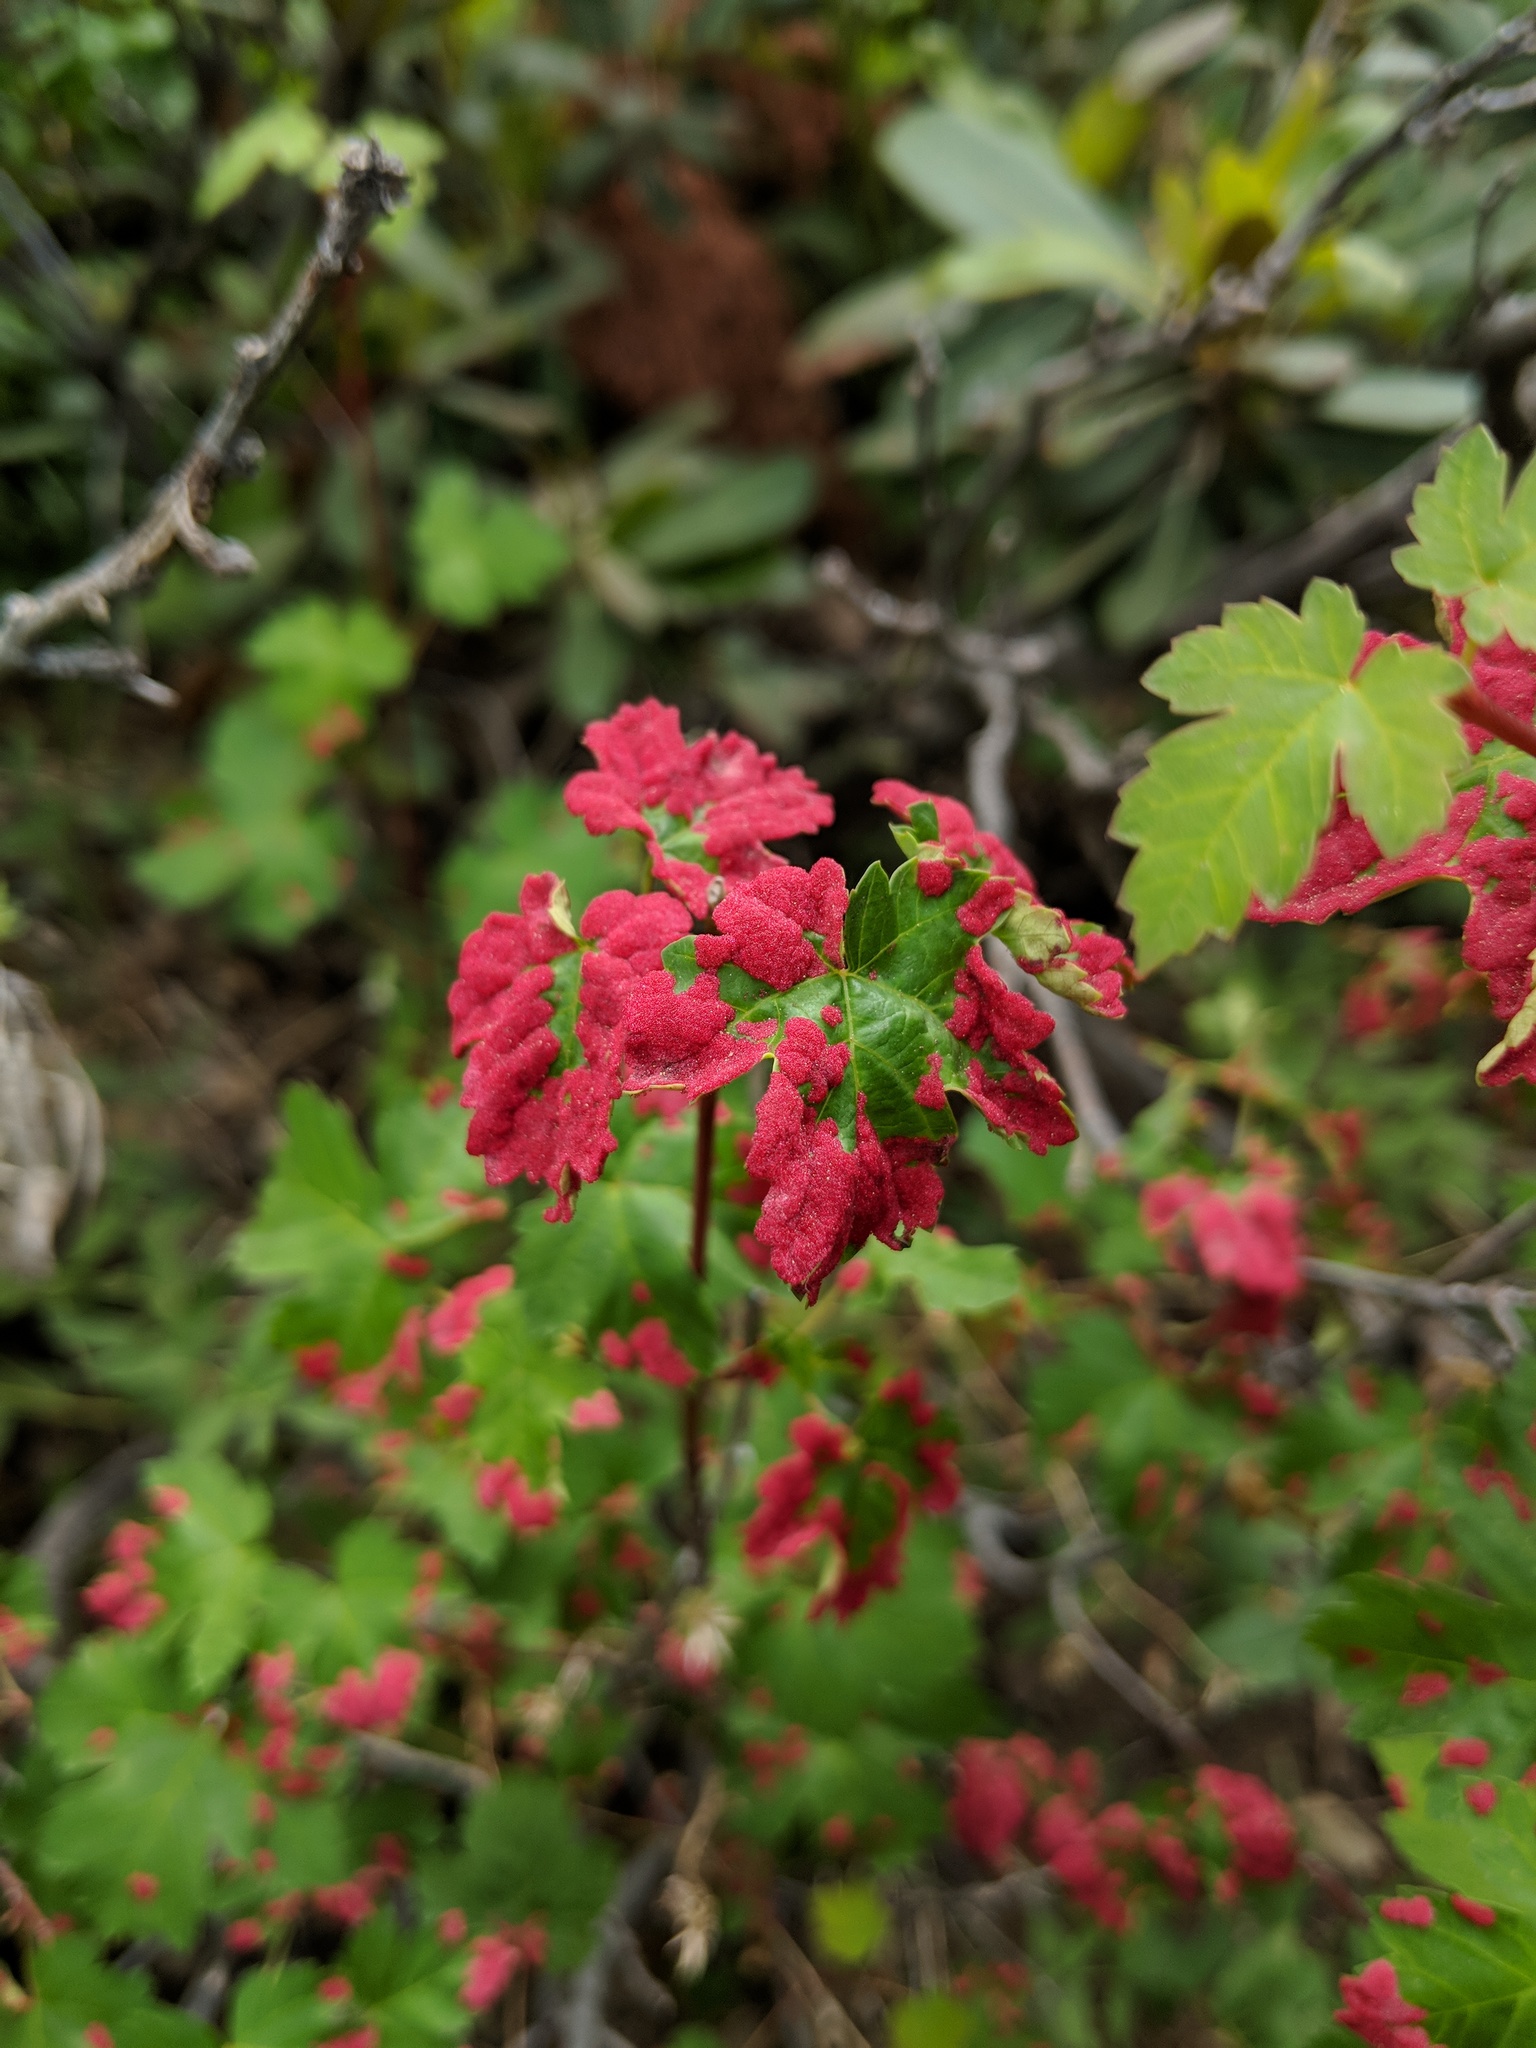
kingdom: Animalia
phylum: Arthropoda
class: Arachnida
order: Trombidiformes
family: Eriophyidae
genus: Aceria
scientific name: Aceria
